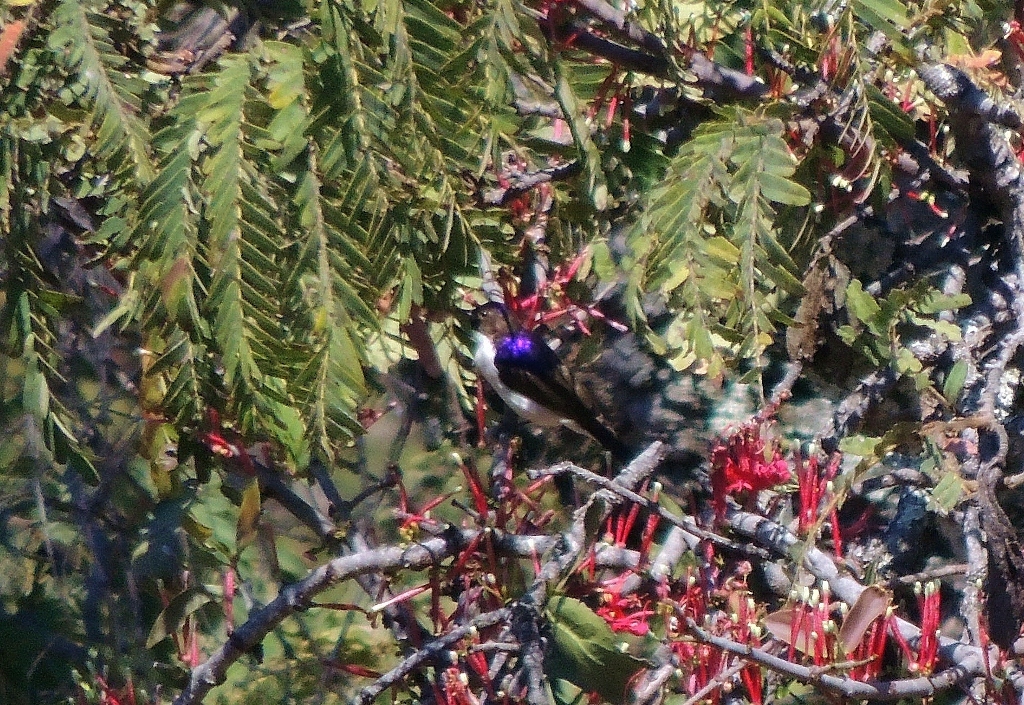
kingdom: Animalia
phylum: Chordata
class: Aves
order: Passeriformes
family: Nectariniidae
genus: Anthreptes
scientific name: Anthreptes longuemarei
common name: Western violet-backed sunbird
